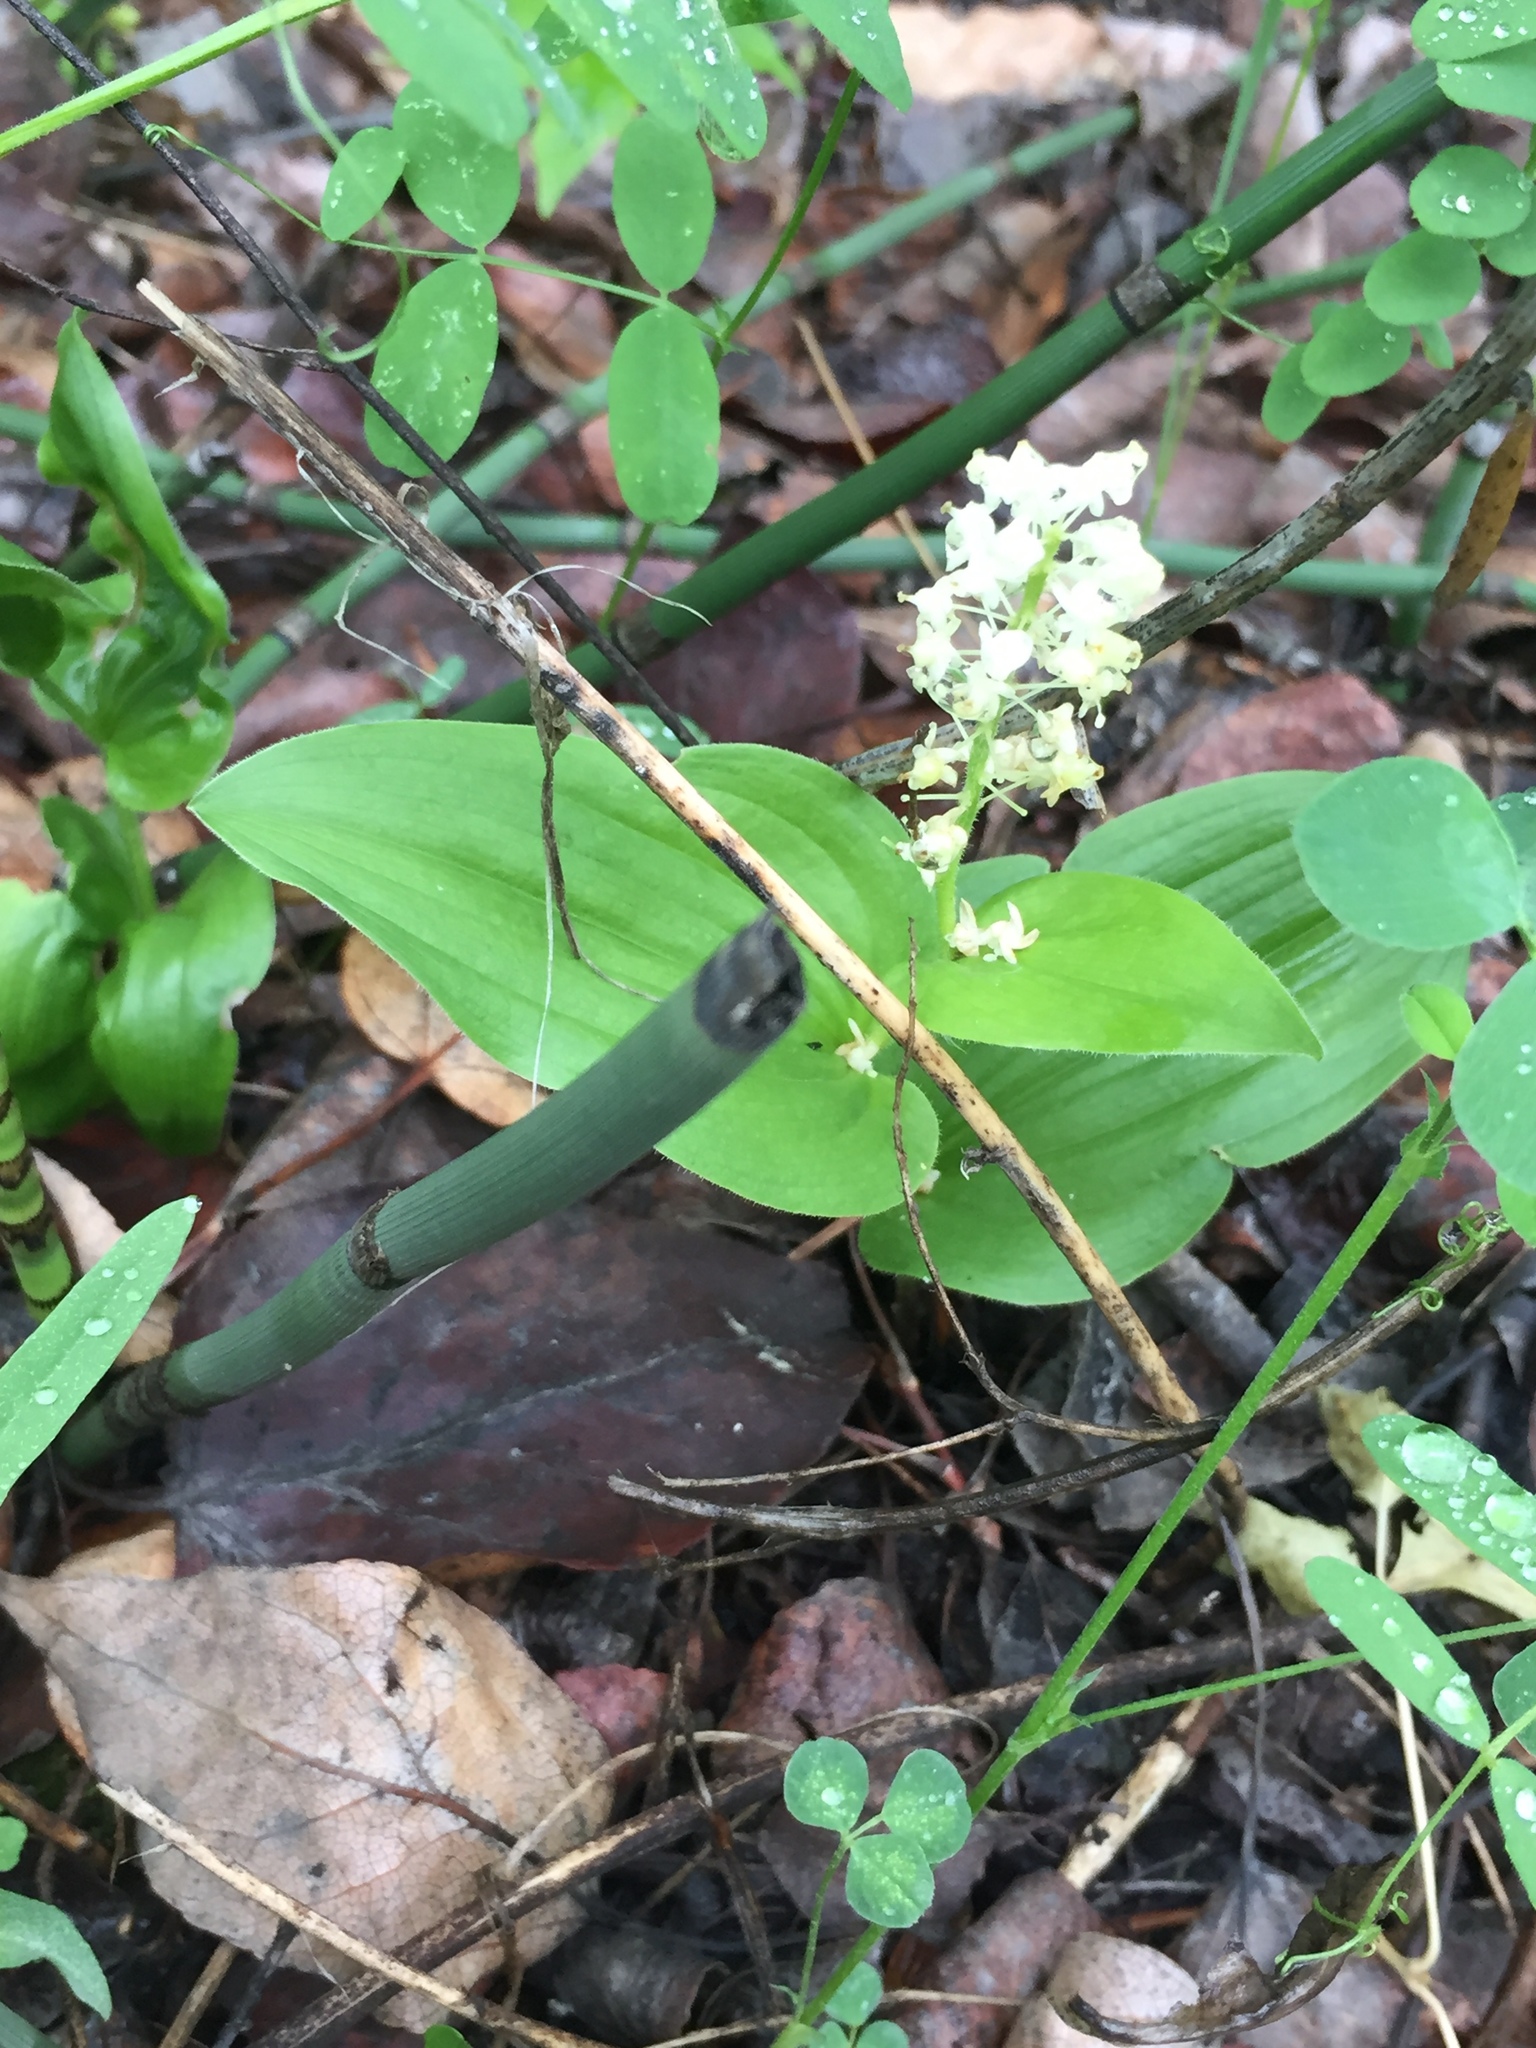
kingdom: Plantae
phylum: Tracheophyta
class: Liliopsida
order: Asparagales
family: Asparagaceae
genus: Maianthemum
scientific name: Maianthemum canadense
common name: False lily-of-the-valley
